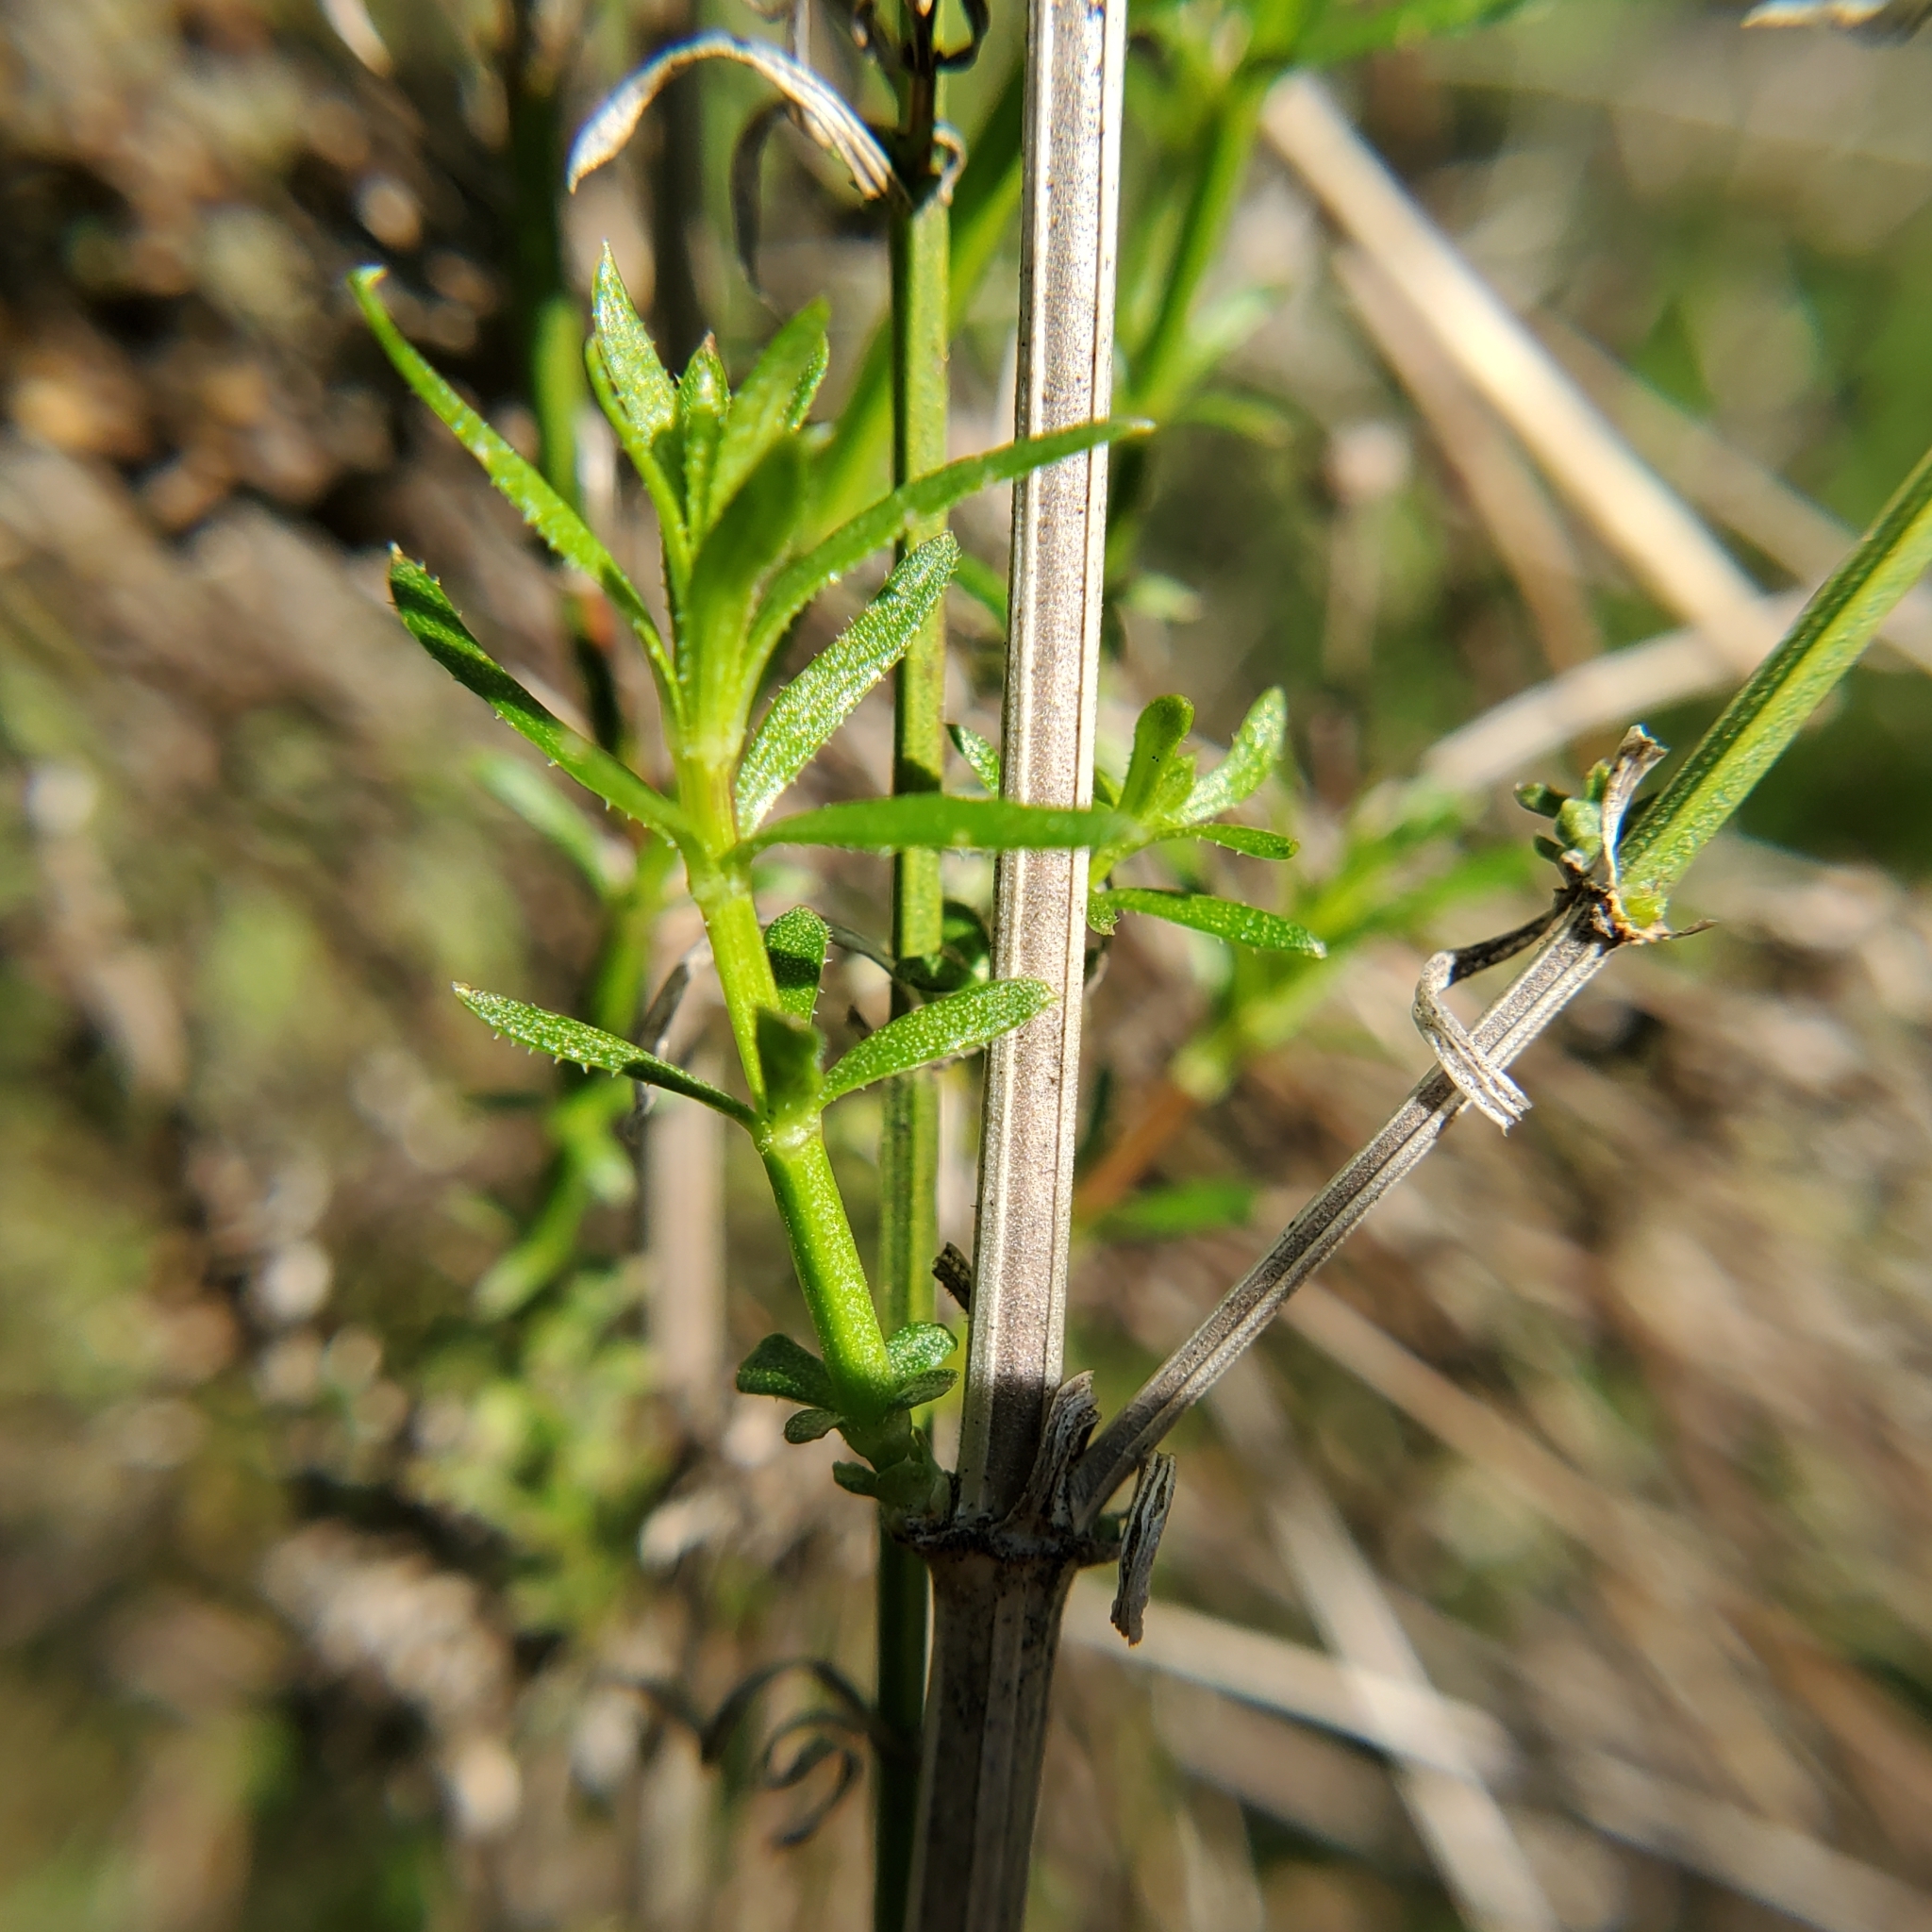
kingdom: Plantae
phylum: Tracheophyta
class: Magnoliopsida
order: Gentianales
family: Rubiaceae
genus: Galium
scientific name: Galium angustifolium
